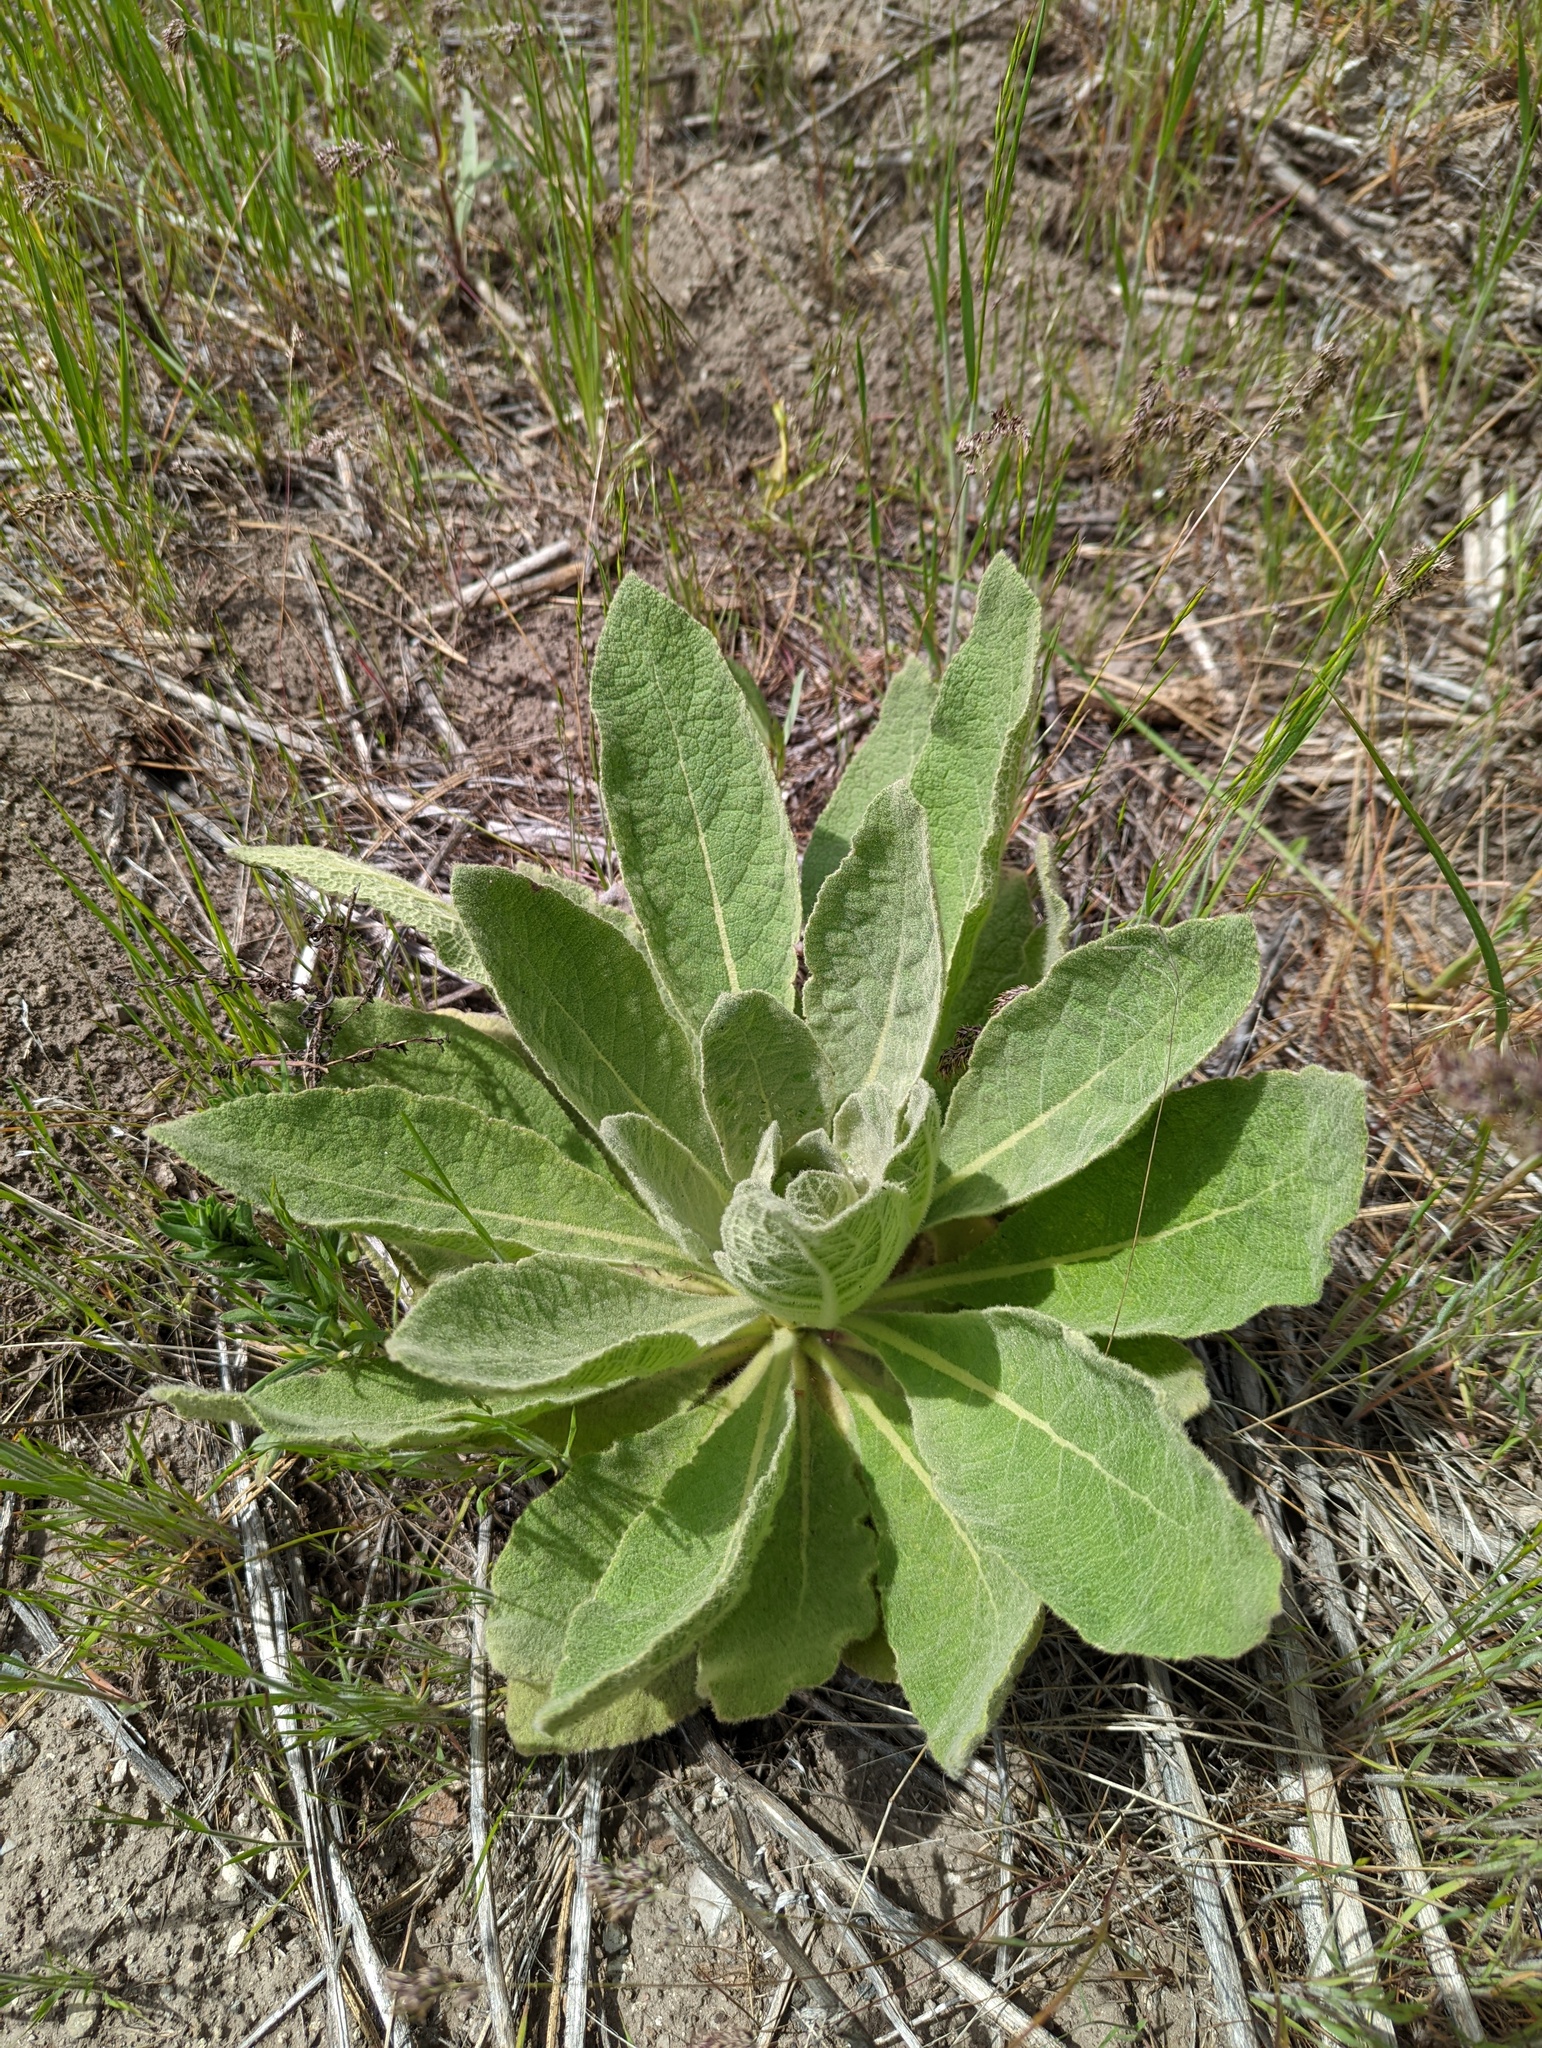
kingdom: Plantae
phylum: Tracheophyta
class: Magnoliopsida
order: Lamiales
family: Scrophulariaceae
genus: Verbascum
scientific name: Verbascum thapsus
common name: Common mullein
